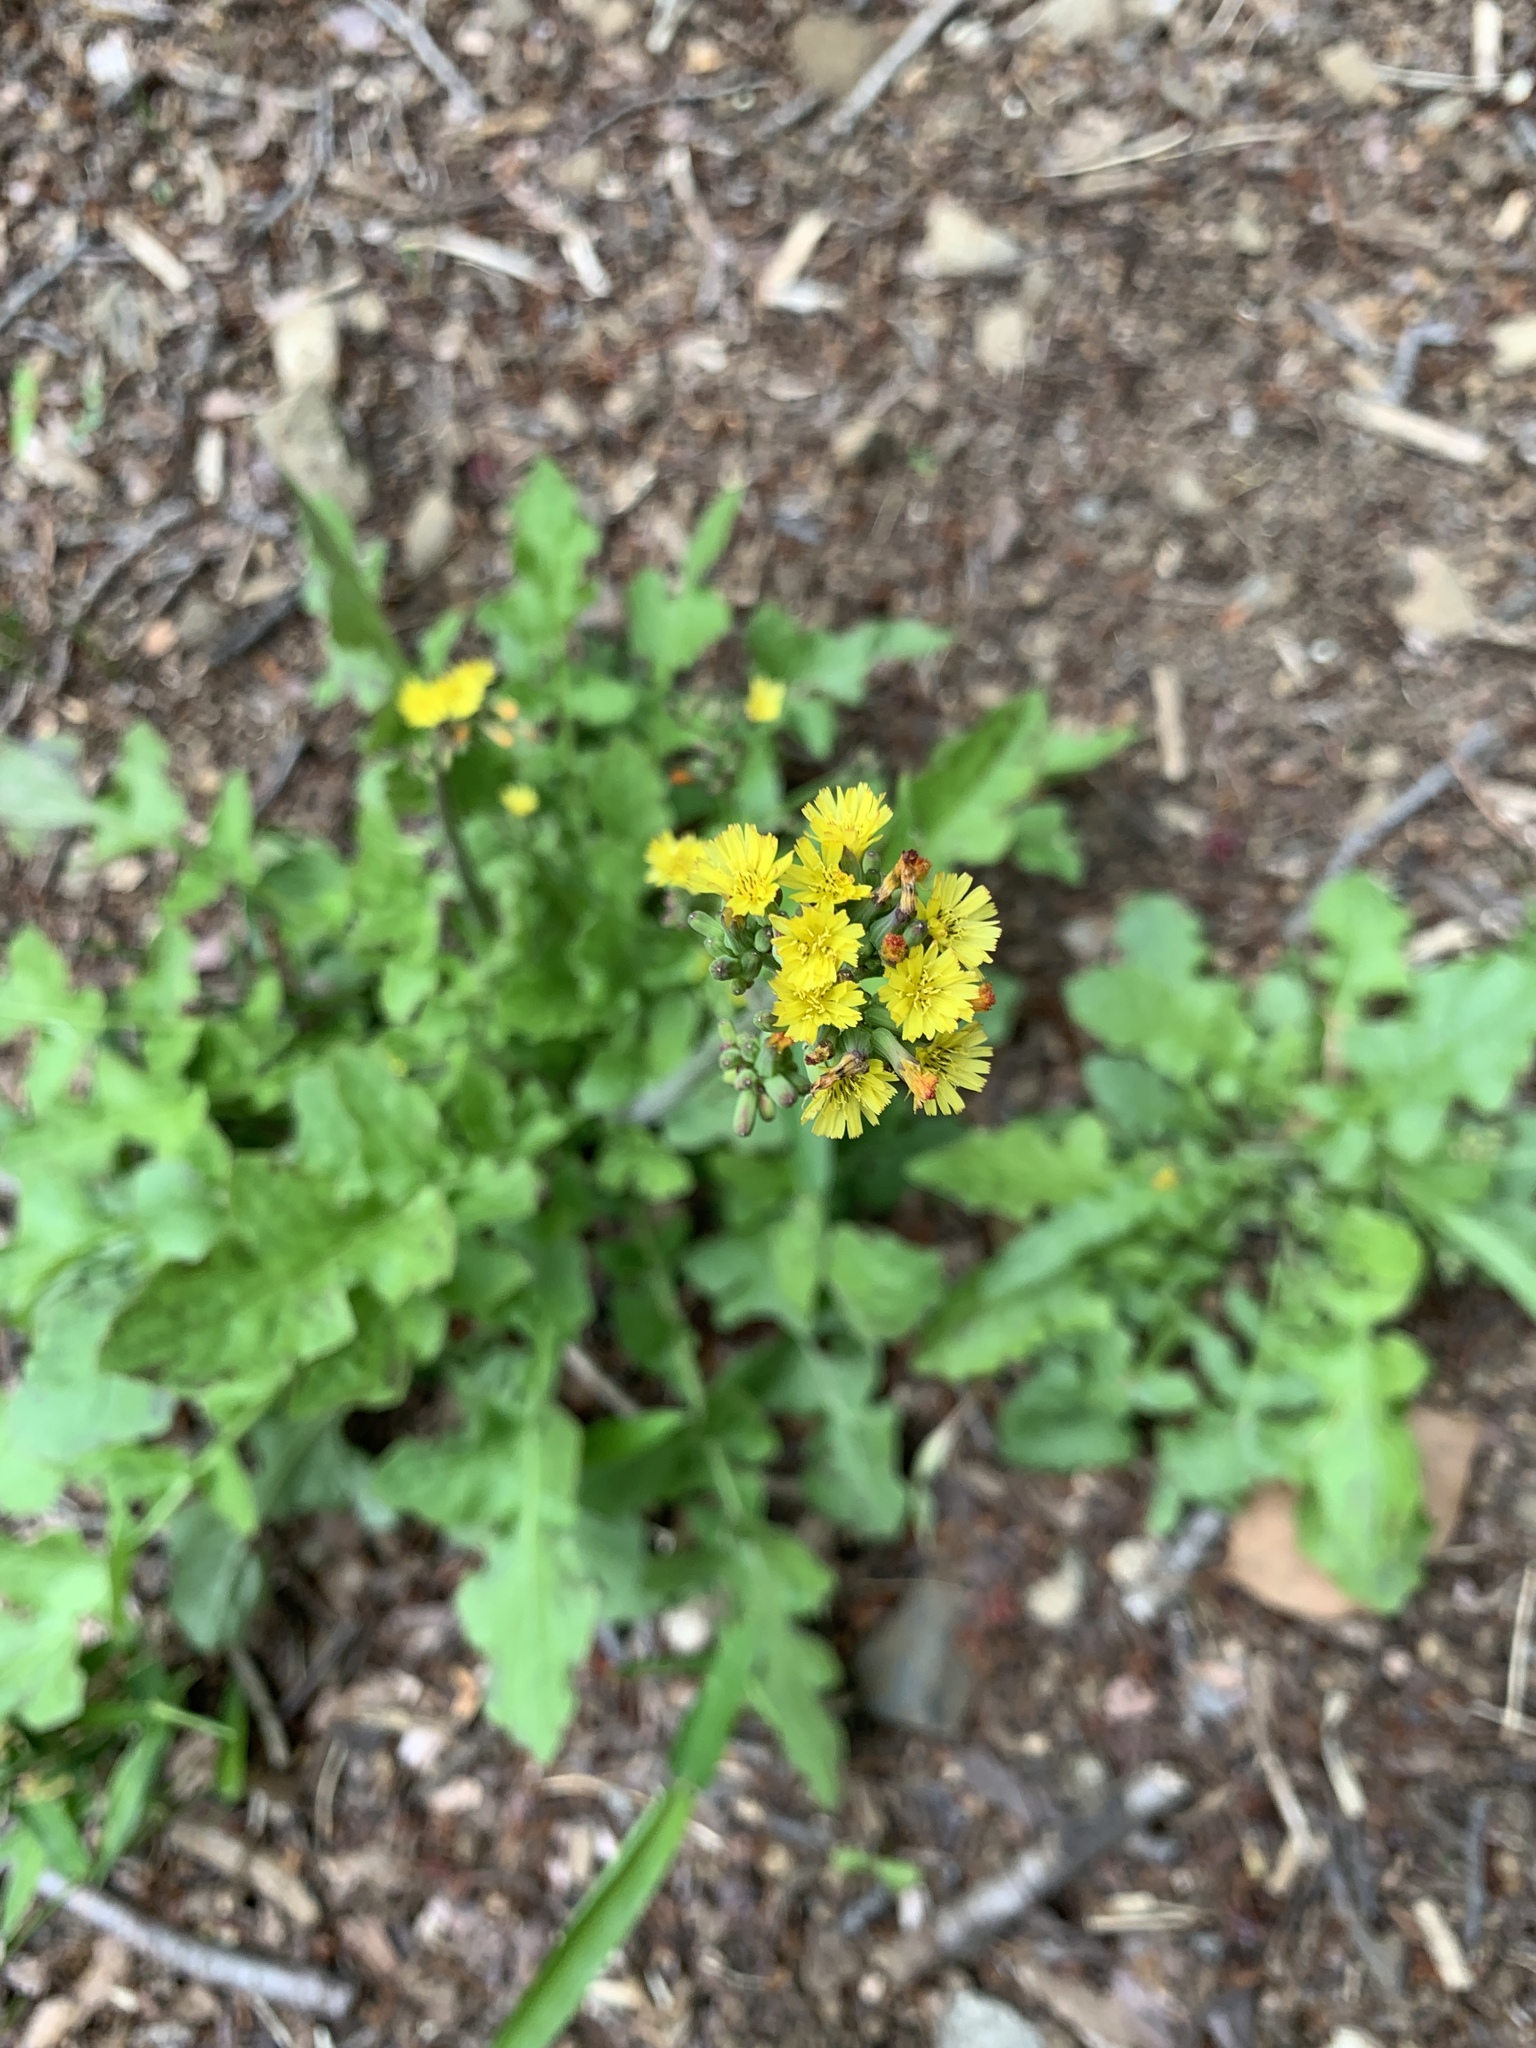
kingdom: Plantae
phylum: Tracheophyta
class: Magnoliopsida
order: Asterales
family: Asteraceae
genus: Youngia
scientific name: Youngia japonica
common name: Oriental false hawksbeard
